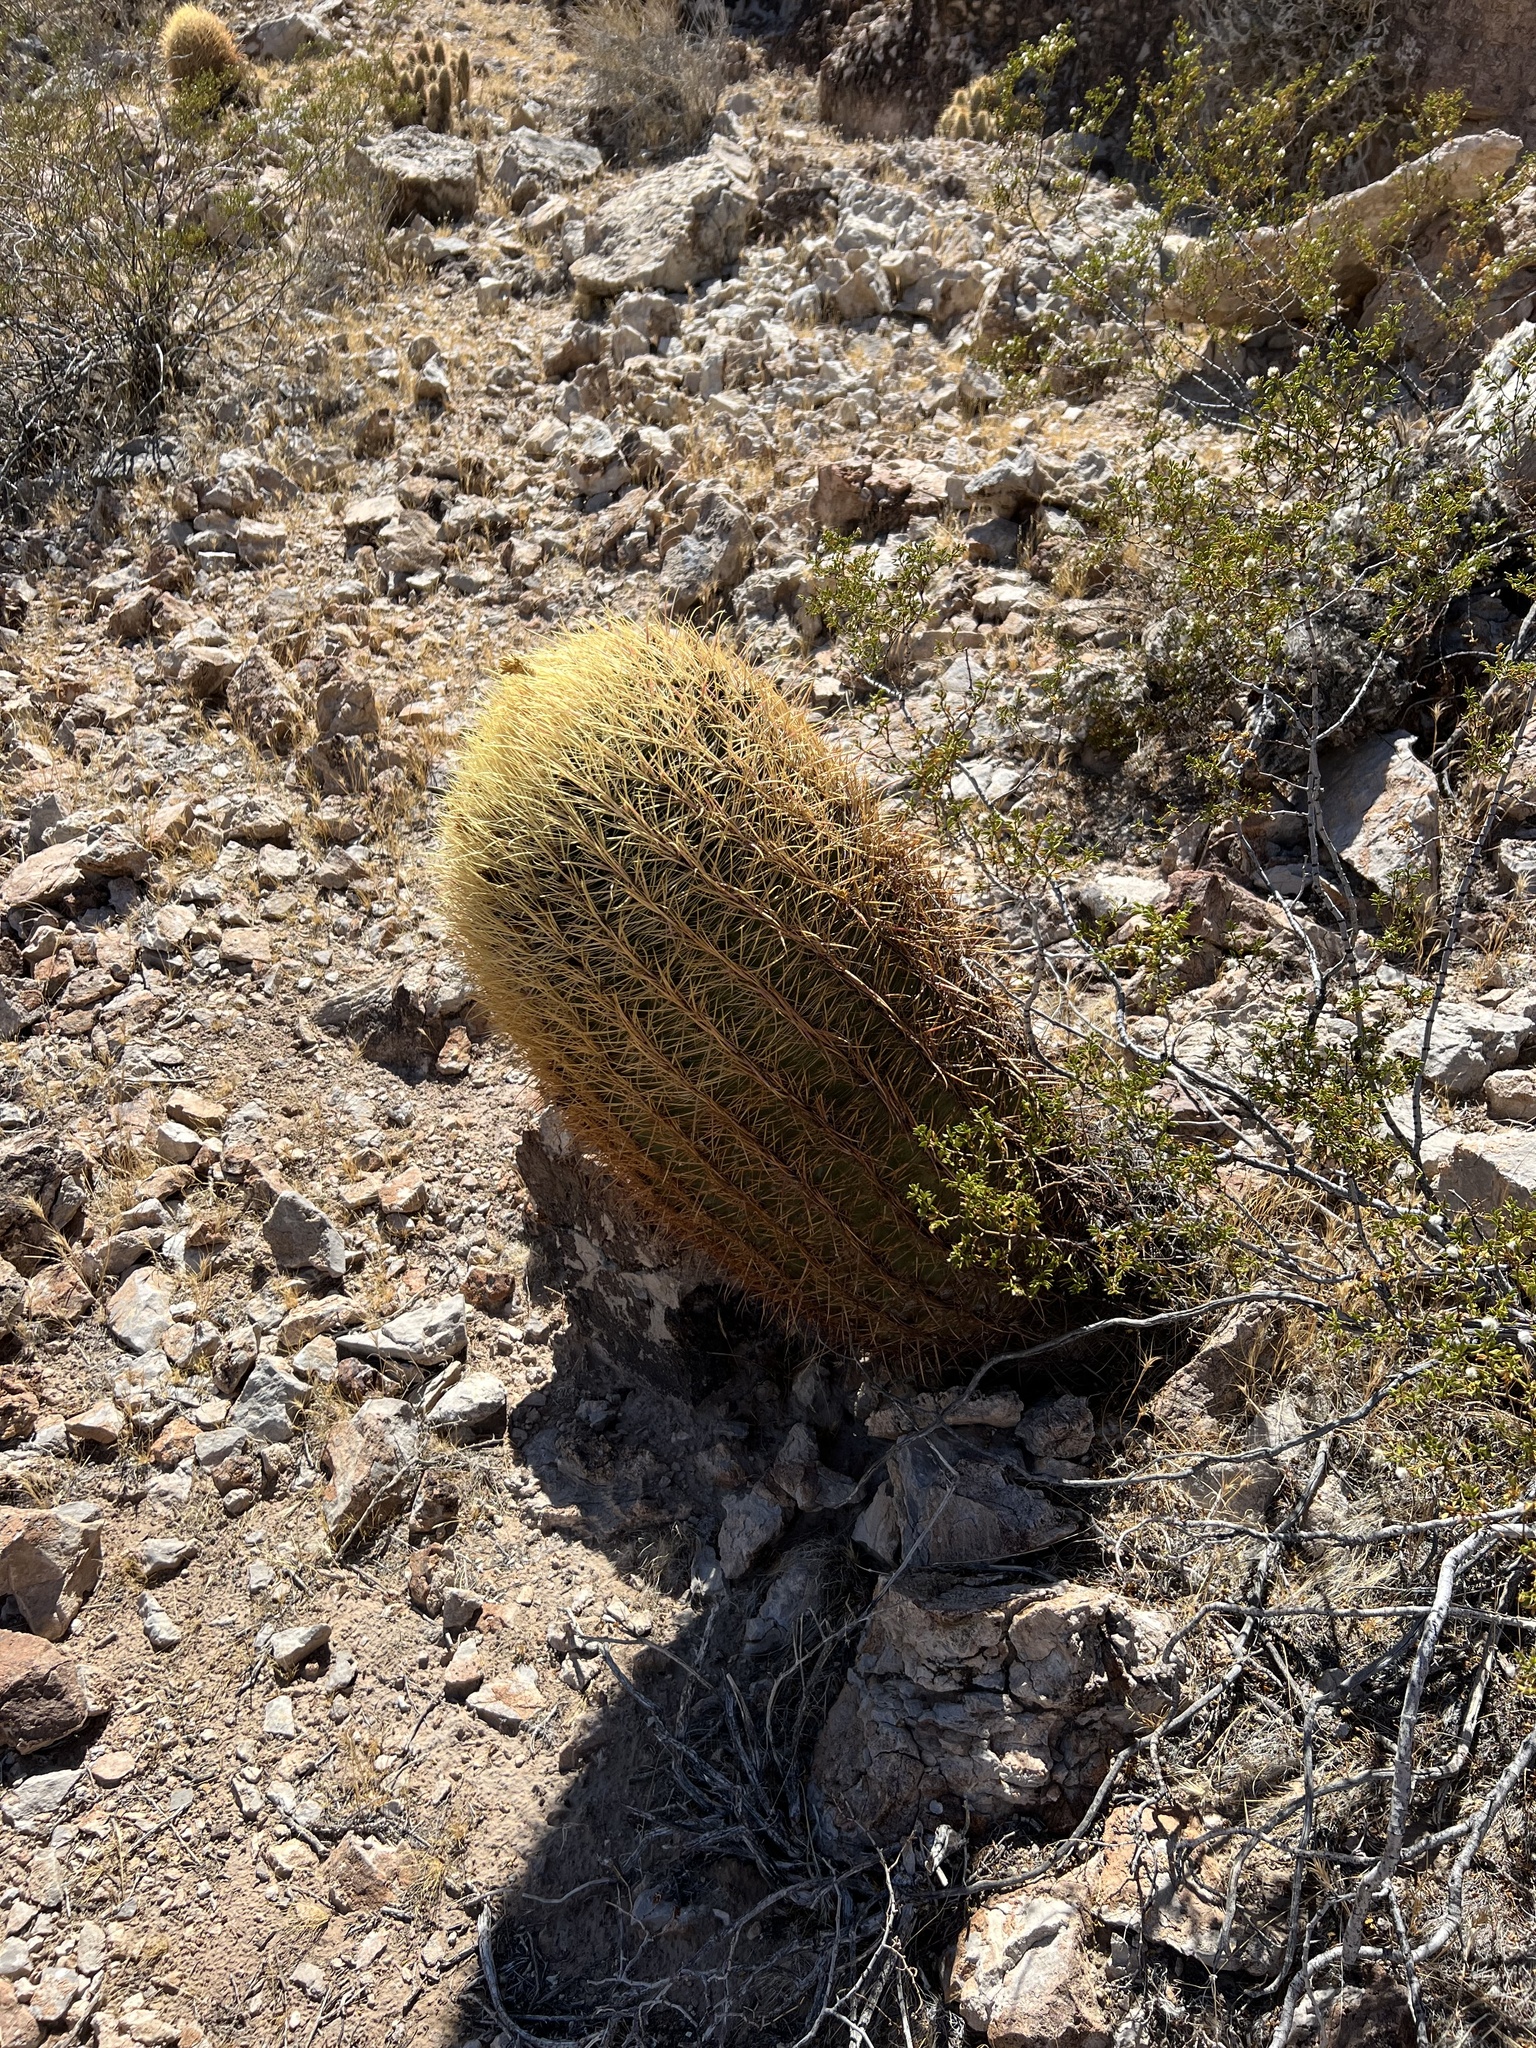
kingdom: Plantae
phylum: Tracheophyta
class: Magnoliopsida
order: Caryophyllales
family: Cactaceae
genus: Ferocactus
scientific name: Ferocactus cylindraceus
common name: California barrel cactus
